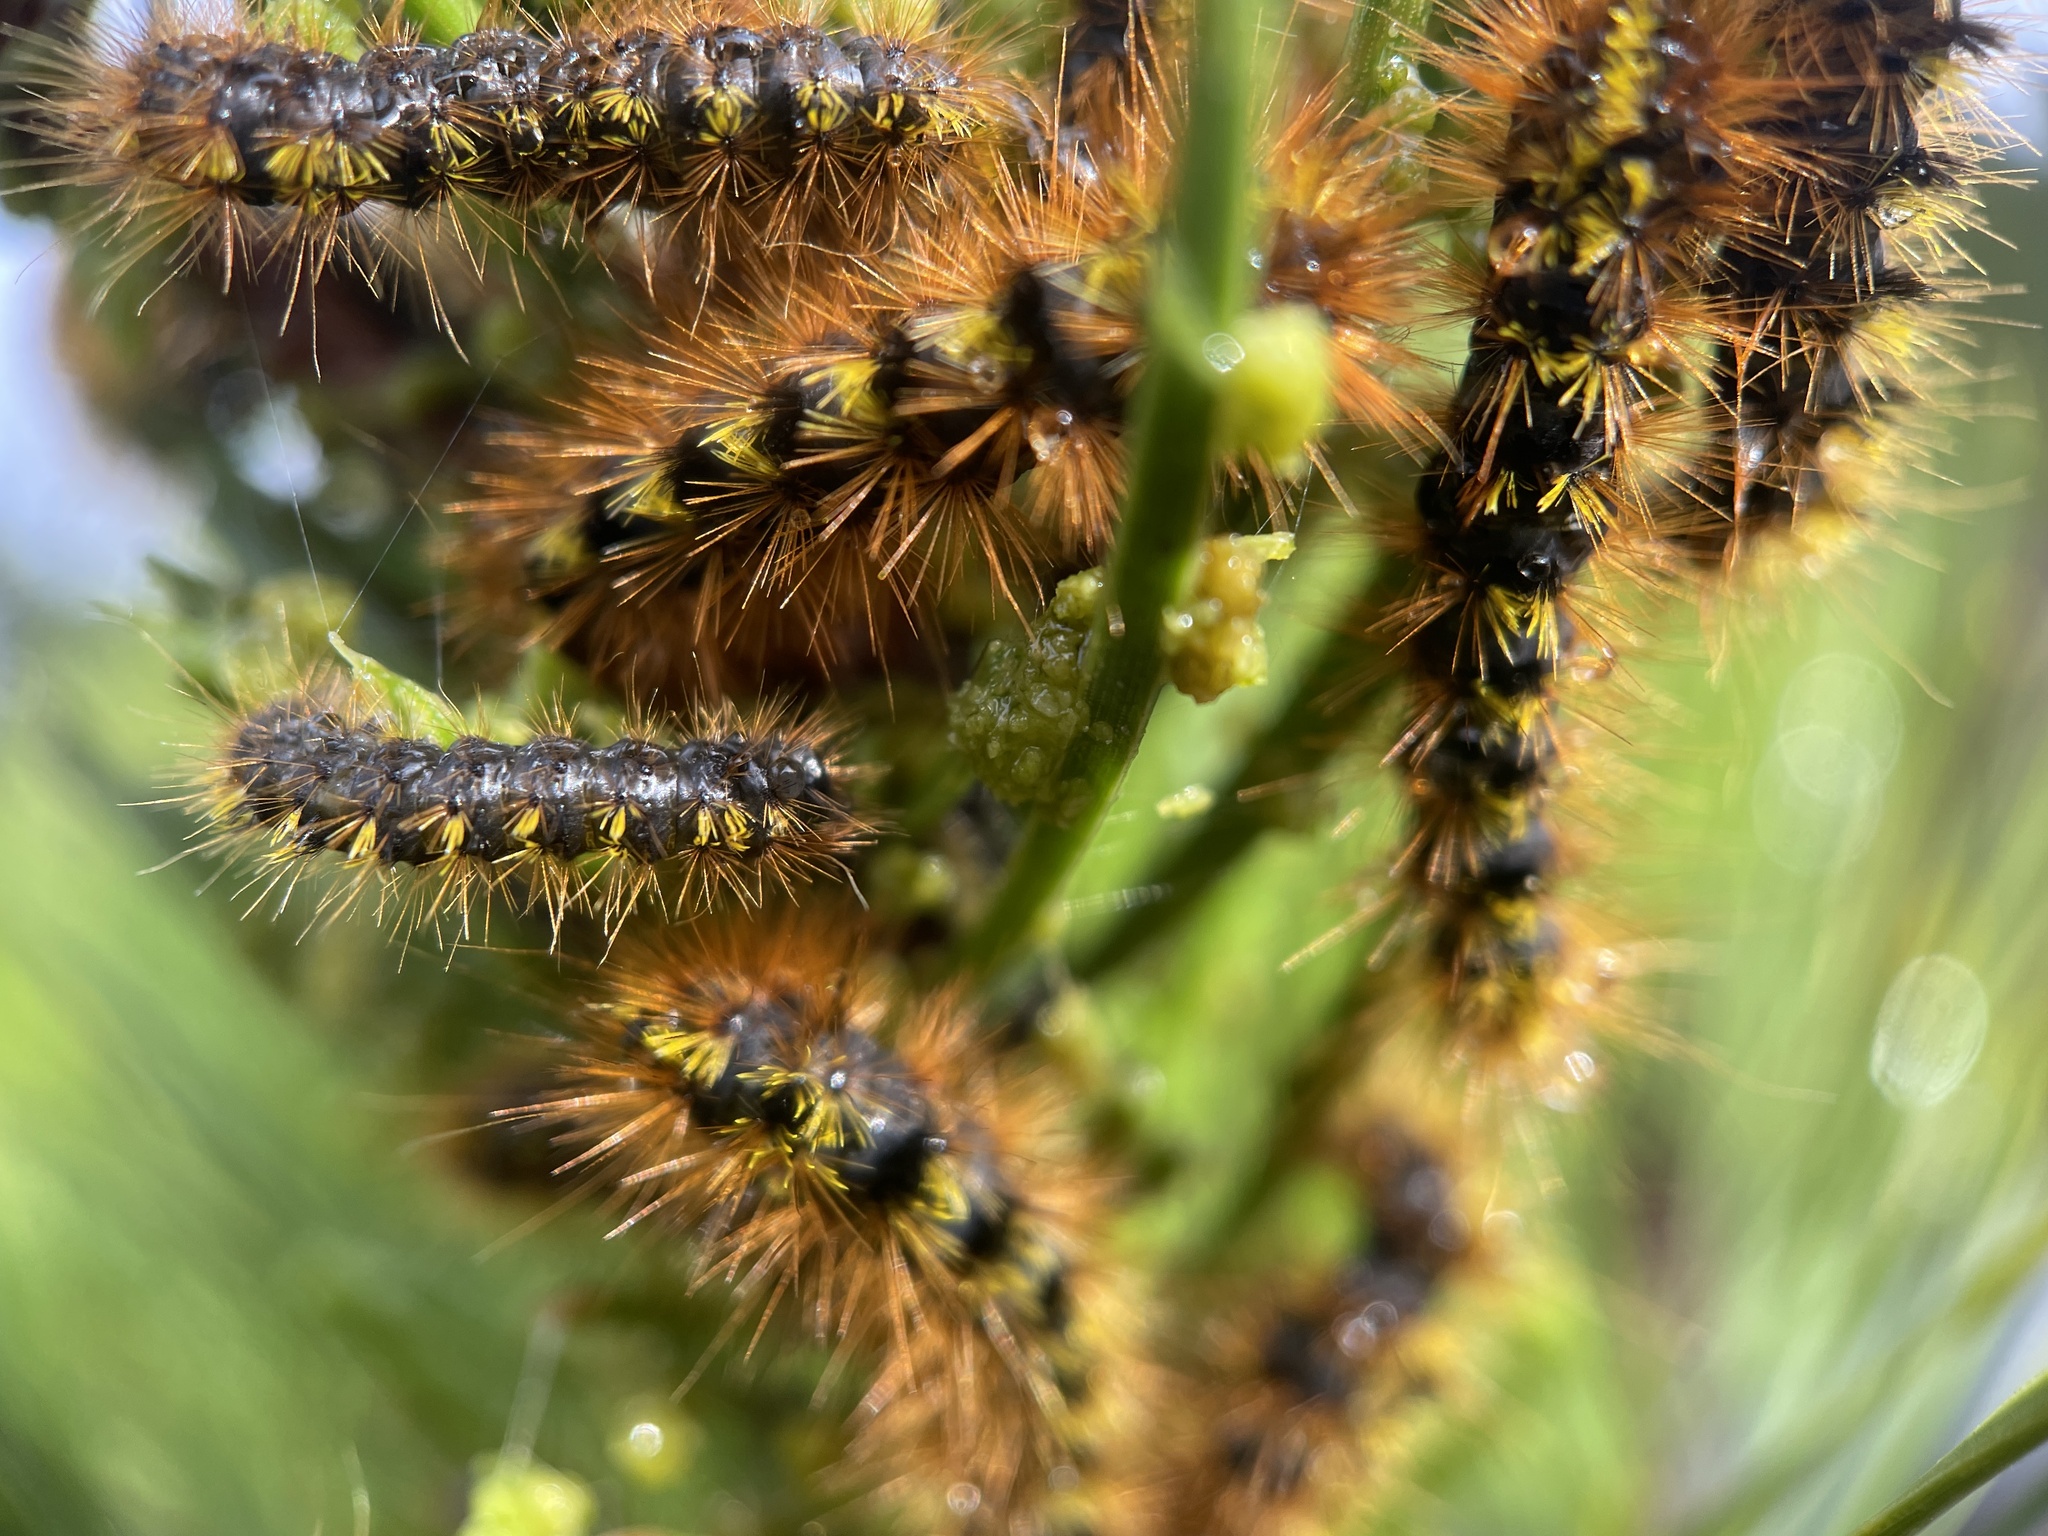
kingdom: Animalia
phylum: Arthropoda
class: Insecta
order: Lepidoptera
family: Erebidae
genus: Lophocampa
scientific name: Lophocampa argentata
